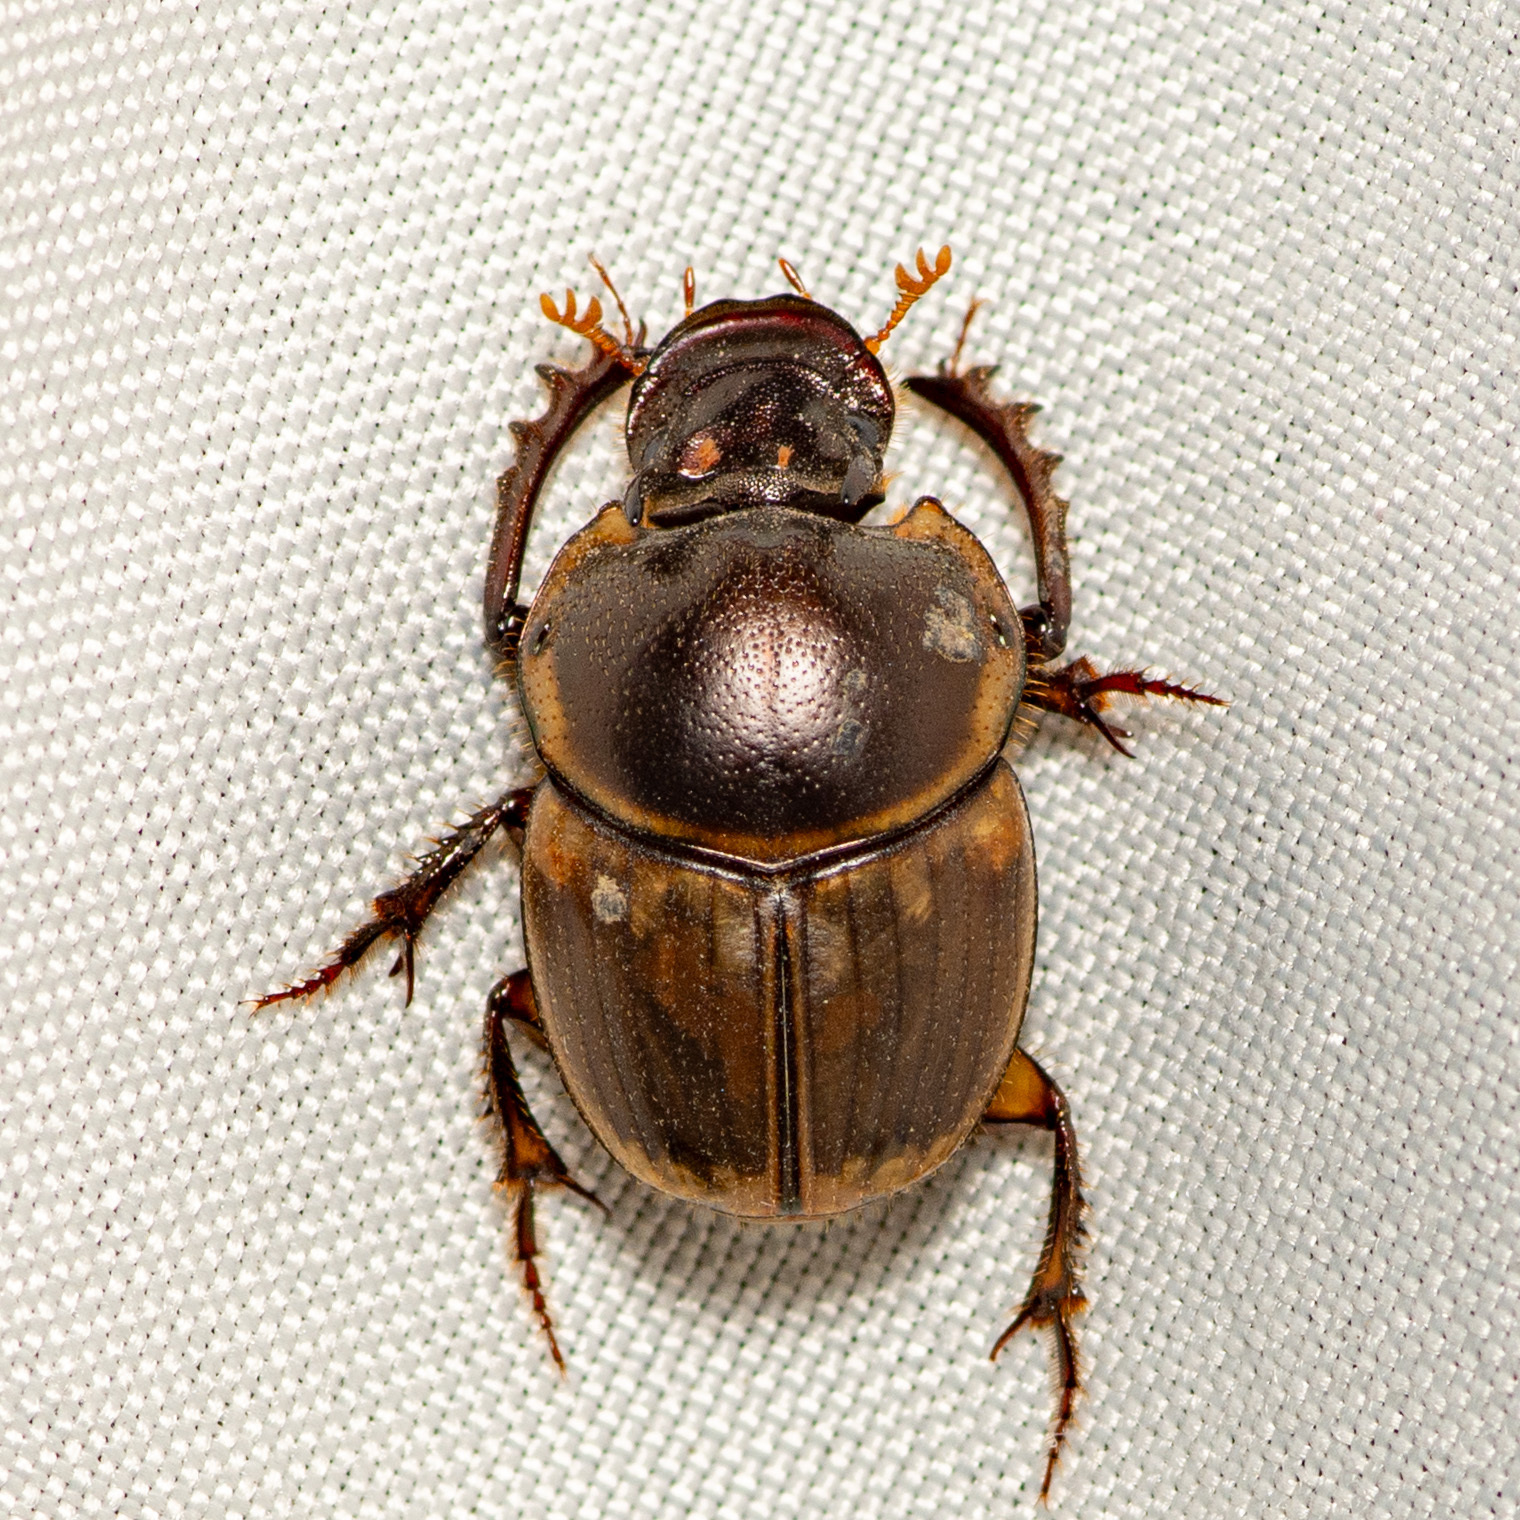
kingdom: Animalia
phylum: Arthropoda
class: Insecta
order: Coleoptera
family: Scarabaeidae
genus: Digitonthophagus
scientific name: Digitonthophagus gazella
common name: Brown dung beetle
